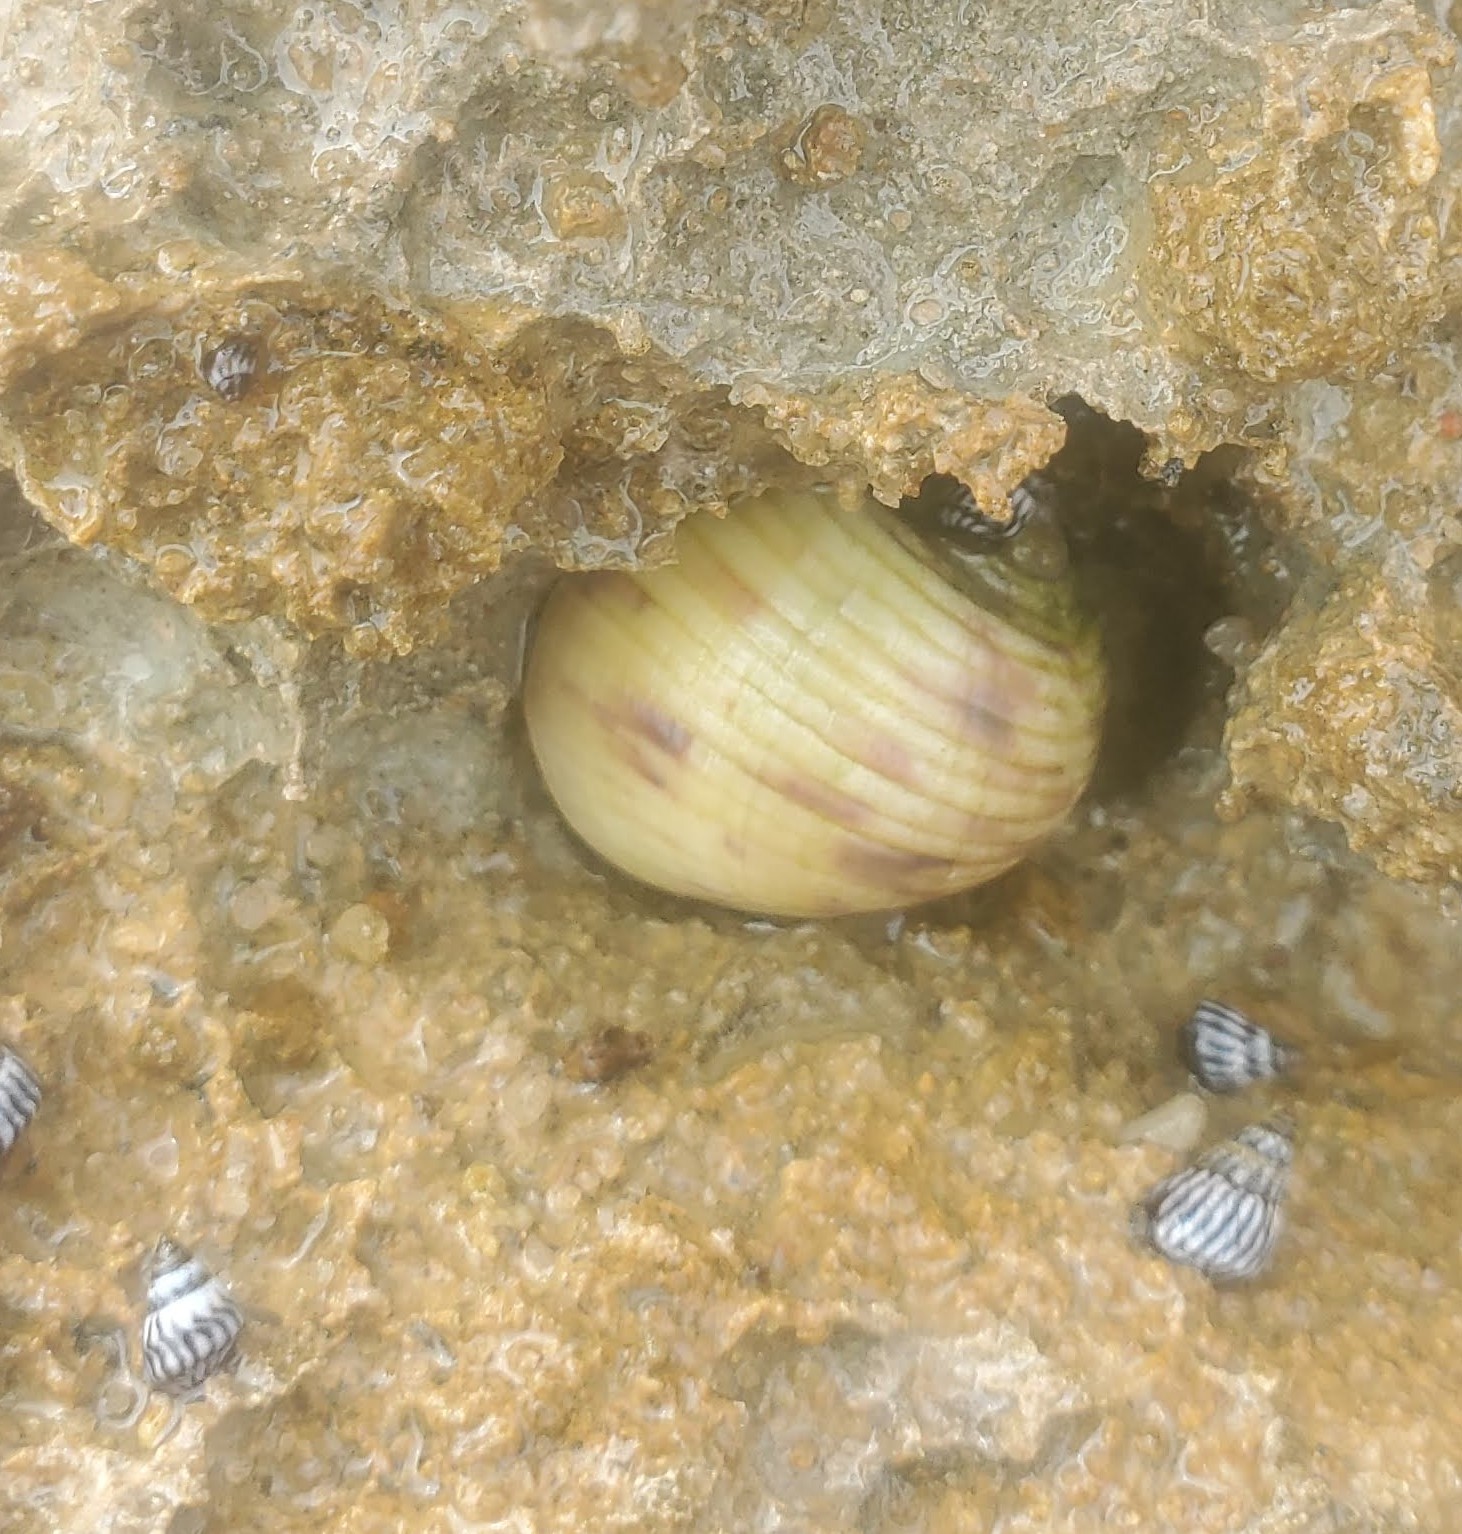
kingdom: Animalia
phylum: Mollusca
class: Gastropoda
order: Cycloneritida
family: Neritidae
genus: Nerita
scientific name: Nerita peloronta
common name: Bleeding tooth
